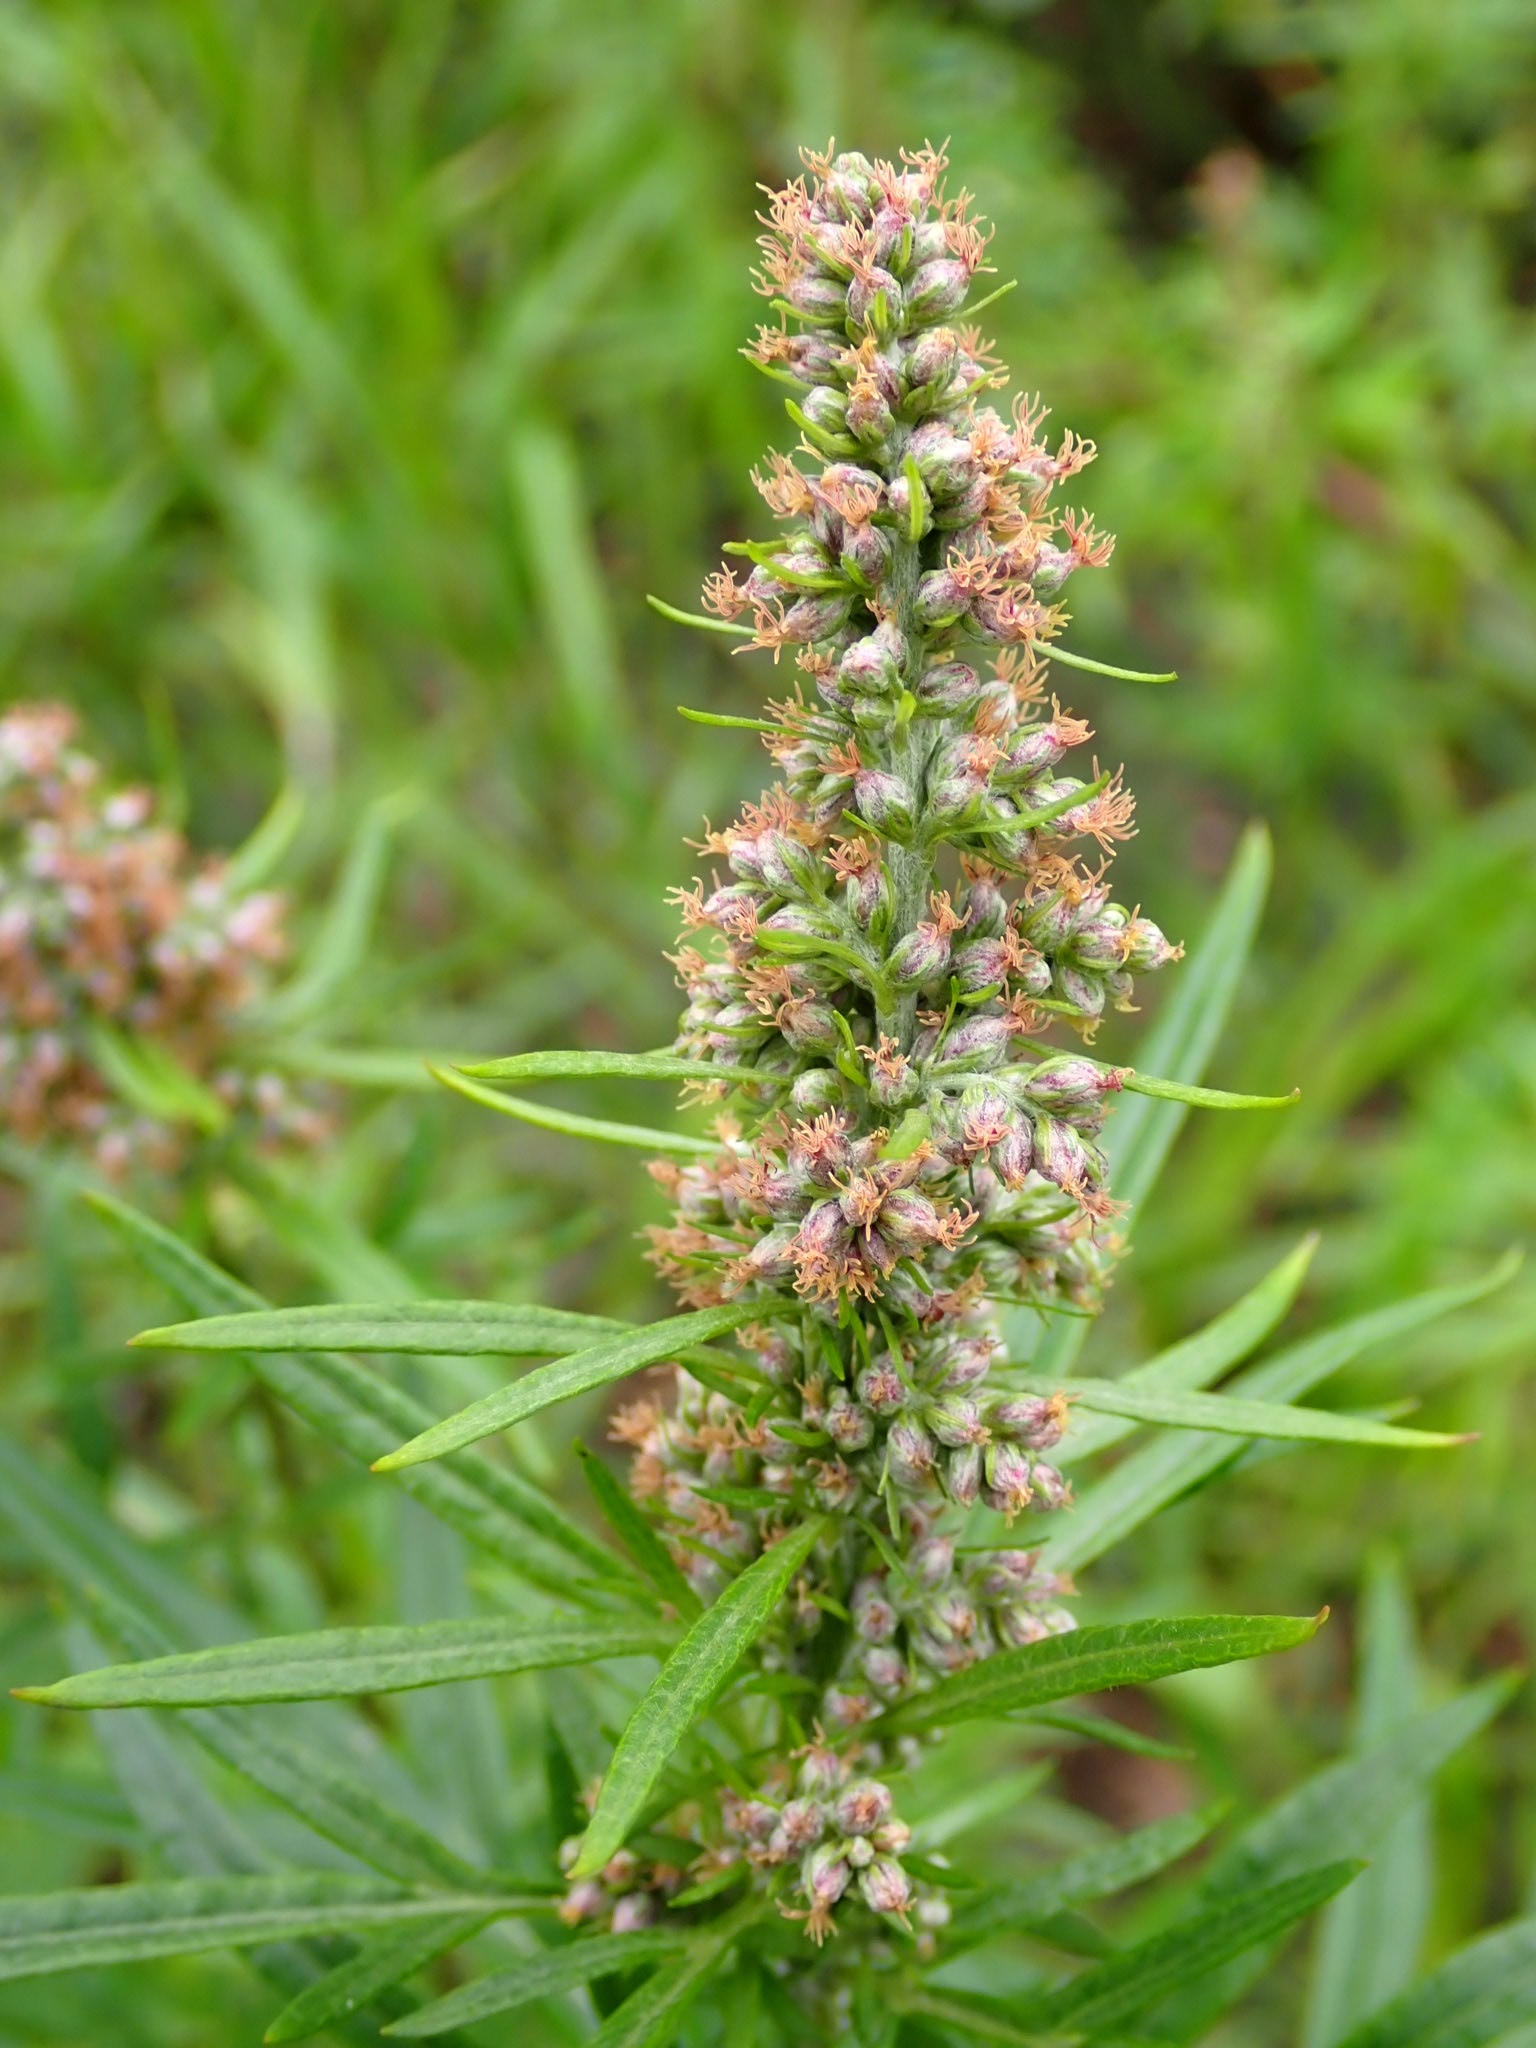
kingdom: Plantae
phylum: Tracheophyta
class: Magnoliopsida
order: Asterales
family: Asteraceae
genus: Artemisia
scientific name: Artemisia vulgaris
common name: Mugwort
